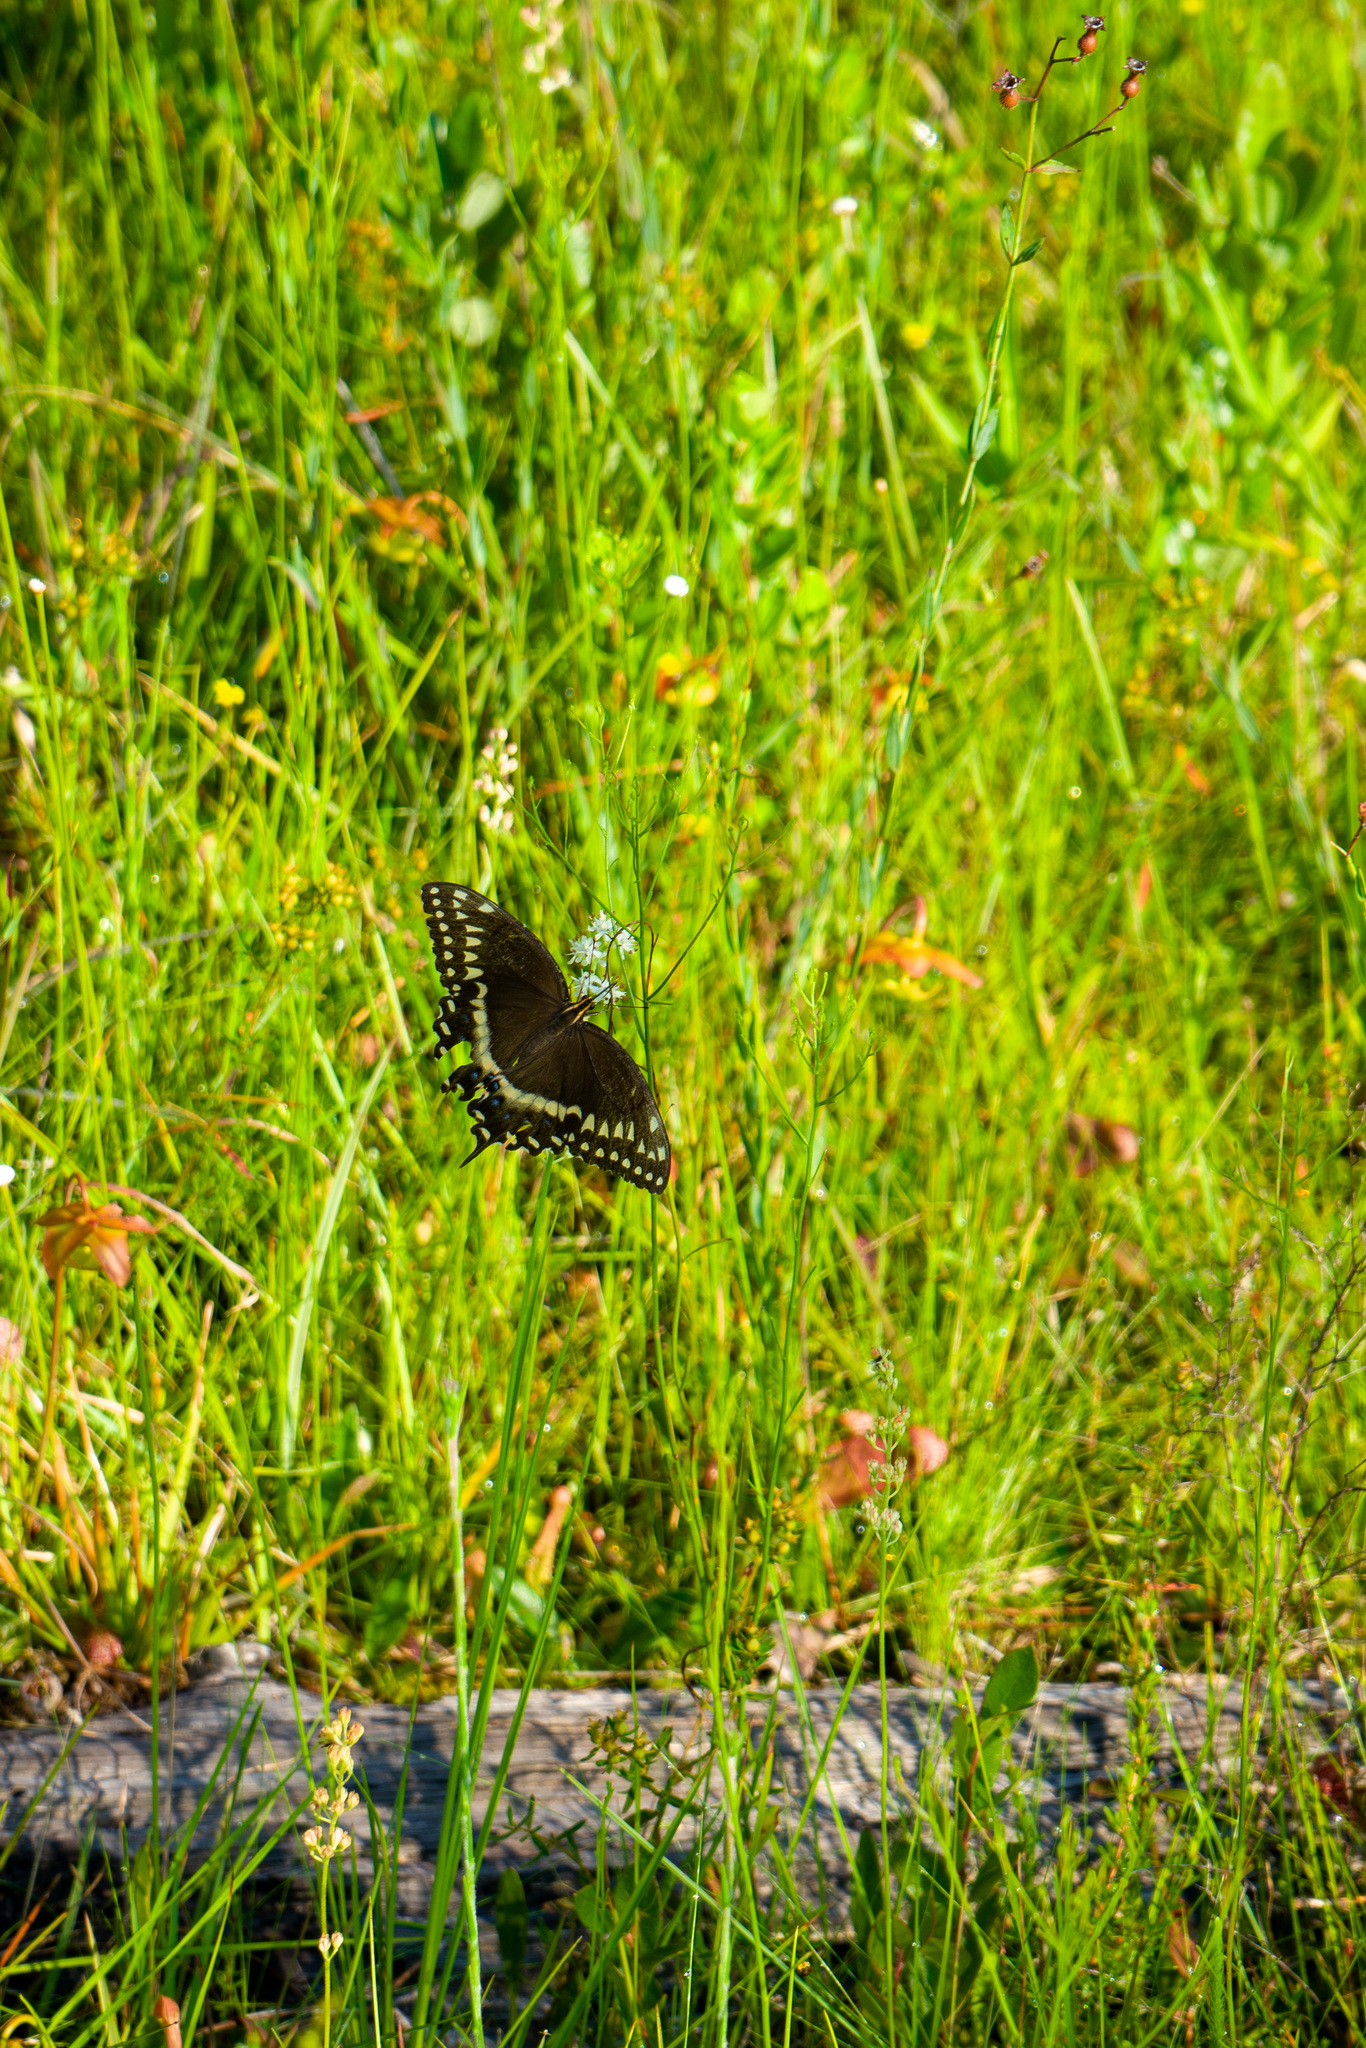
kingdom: Animalia
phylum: Arthropoda
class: Insecta
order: Lepidoptera
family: Papilionidae
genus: Papilio
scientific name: Papilio palamedes
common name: Palamedes swallowtail
